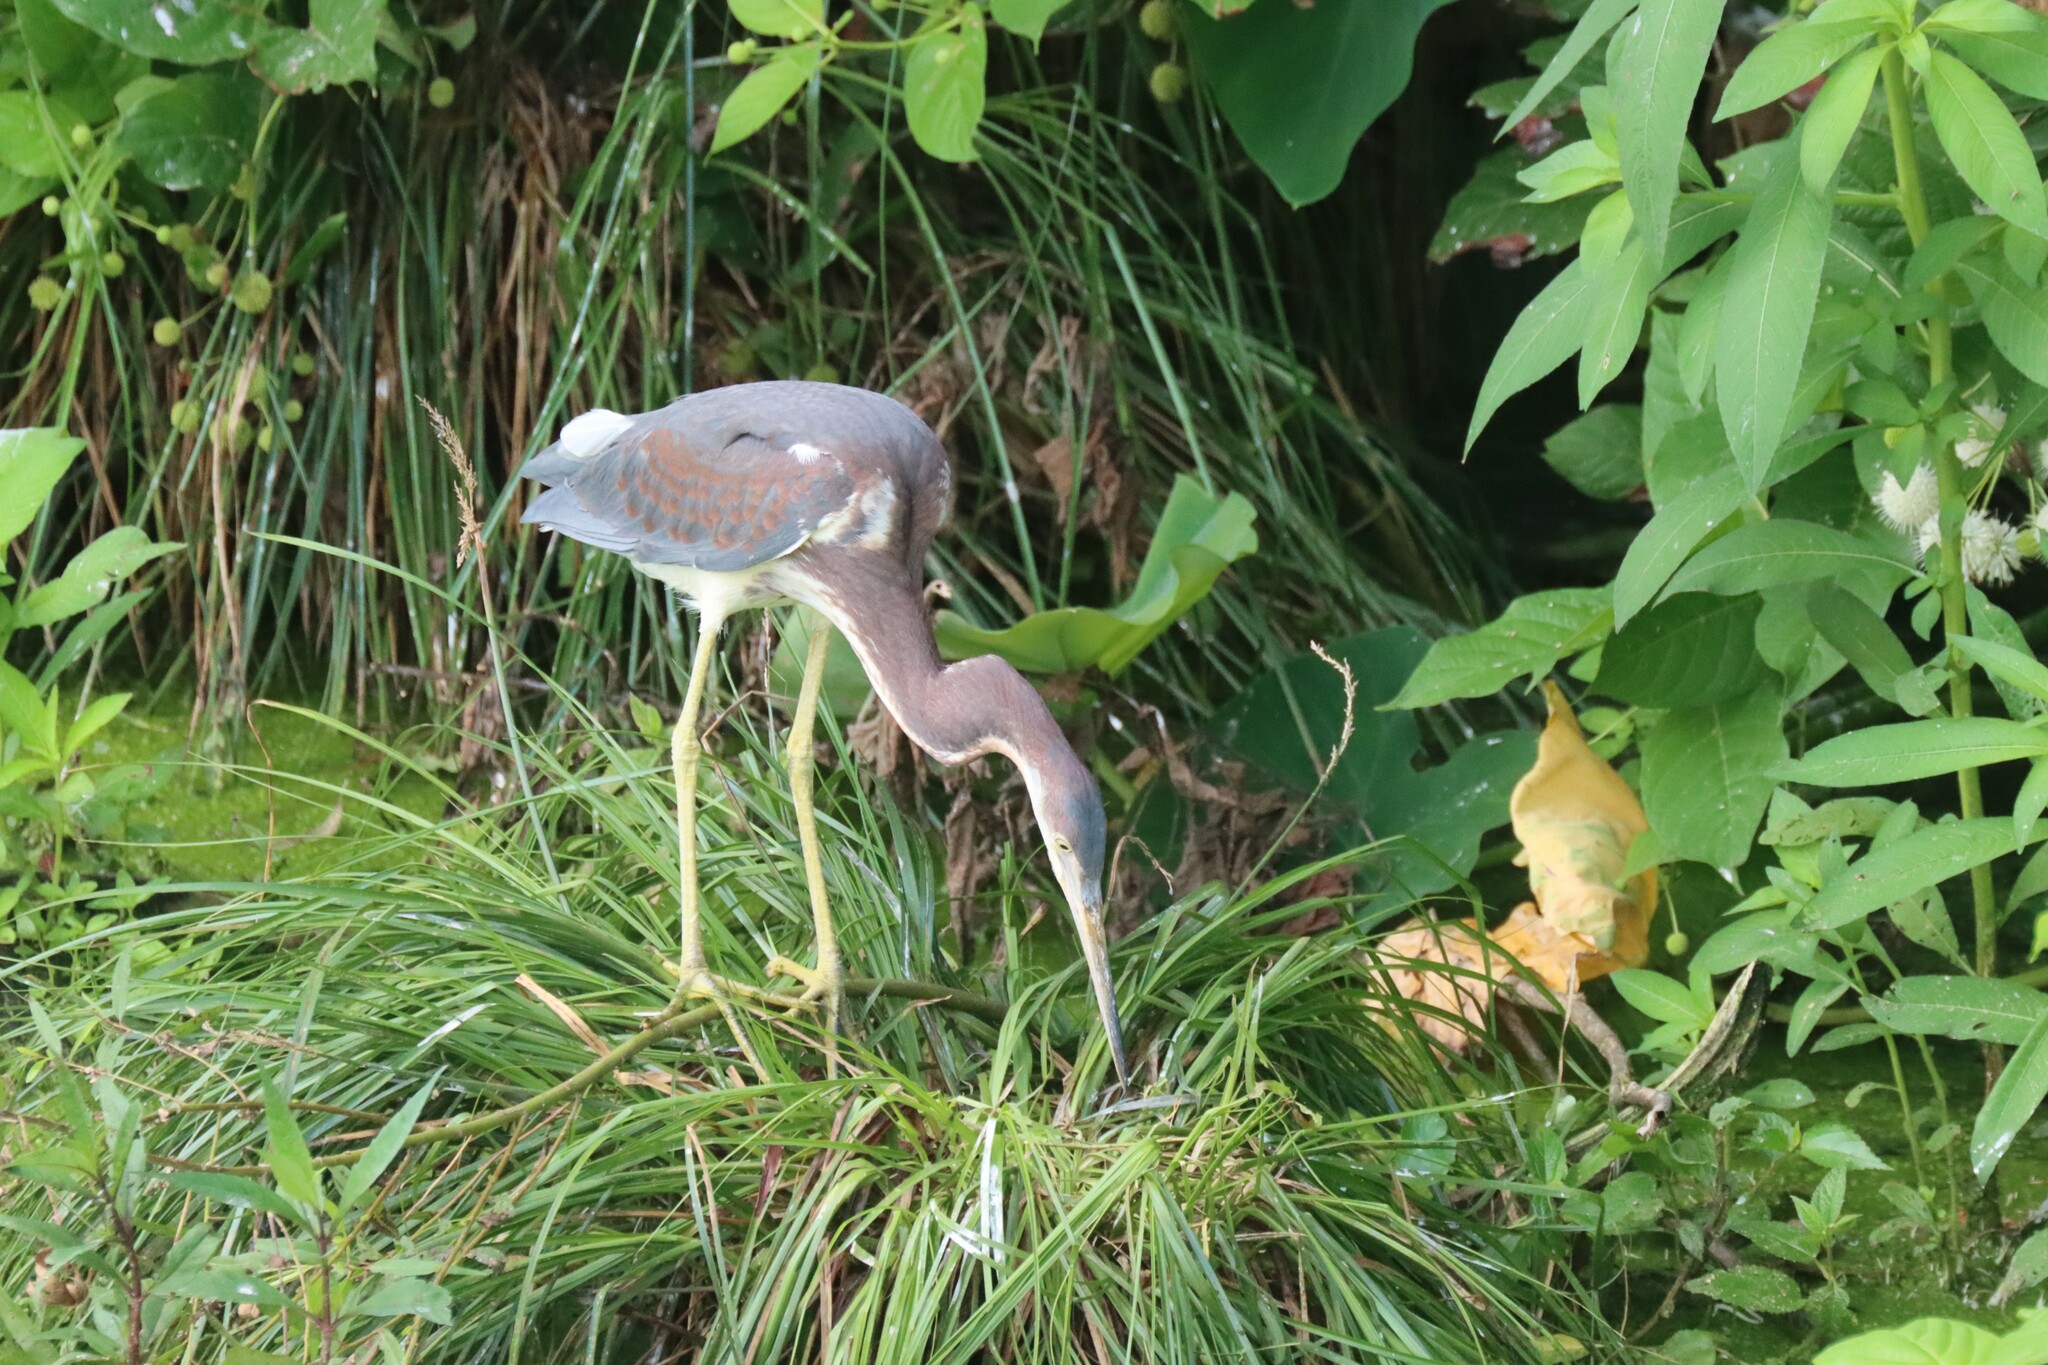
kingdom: Animalia
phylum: Chordata
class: Aves
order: Pelecaniformes
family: Ardeidae
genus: Egretta
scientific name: Egretta tricolor
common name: Tricolored heron
